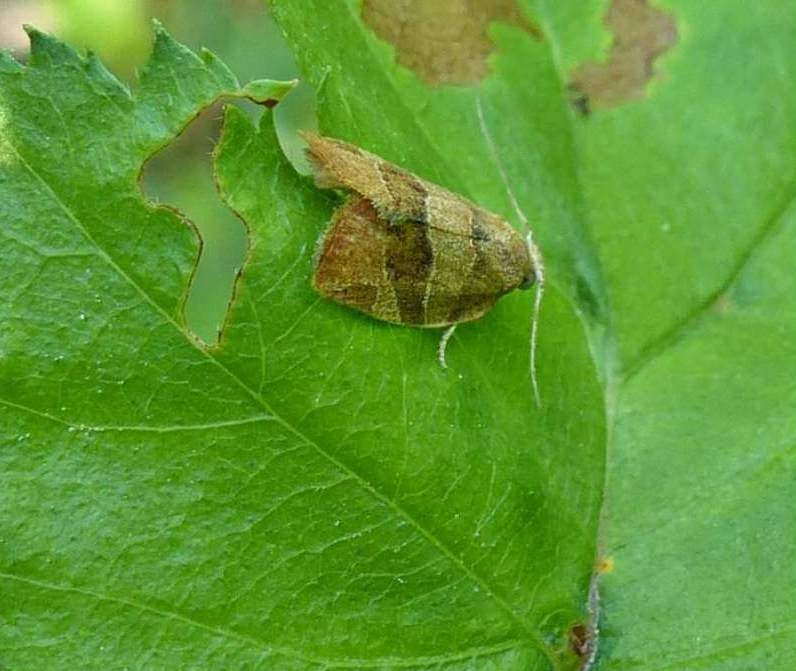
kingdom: Animalia
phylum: Arthropoda
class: Insecta
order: Lepidoptera
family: Tortricidae
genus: Pandemis
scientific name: Pandemis limitata
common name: Three-lined leafroller moth
